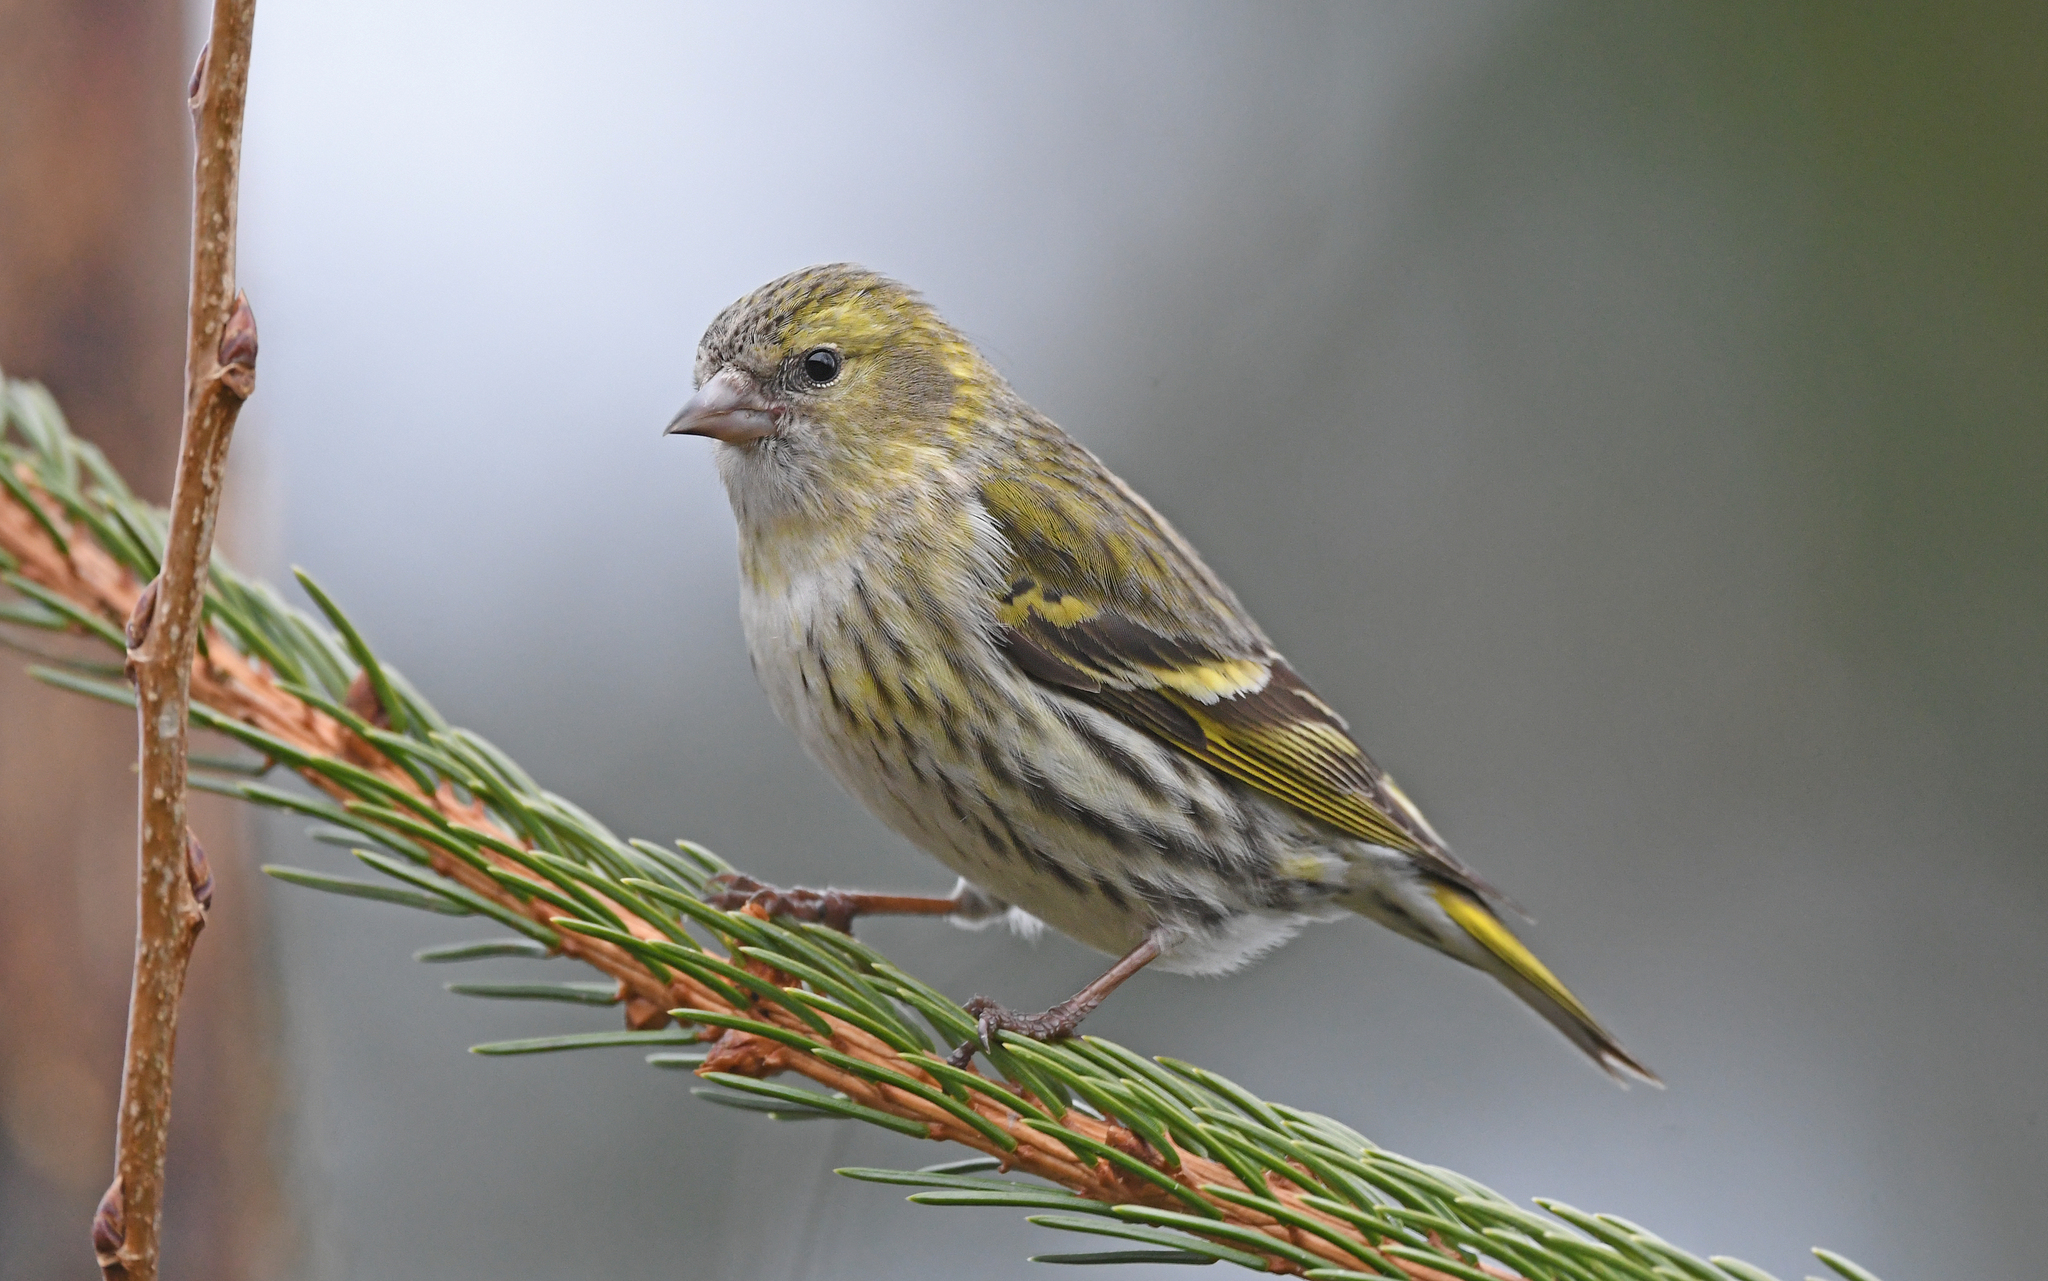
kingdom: Animalia
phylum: Chordata
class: Aves
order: Passeriformes
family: Fringillidae
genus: Spinus
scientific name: Spinus spinus
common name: Eurasian siskin
